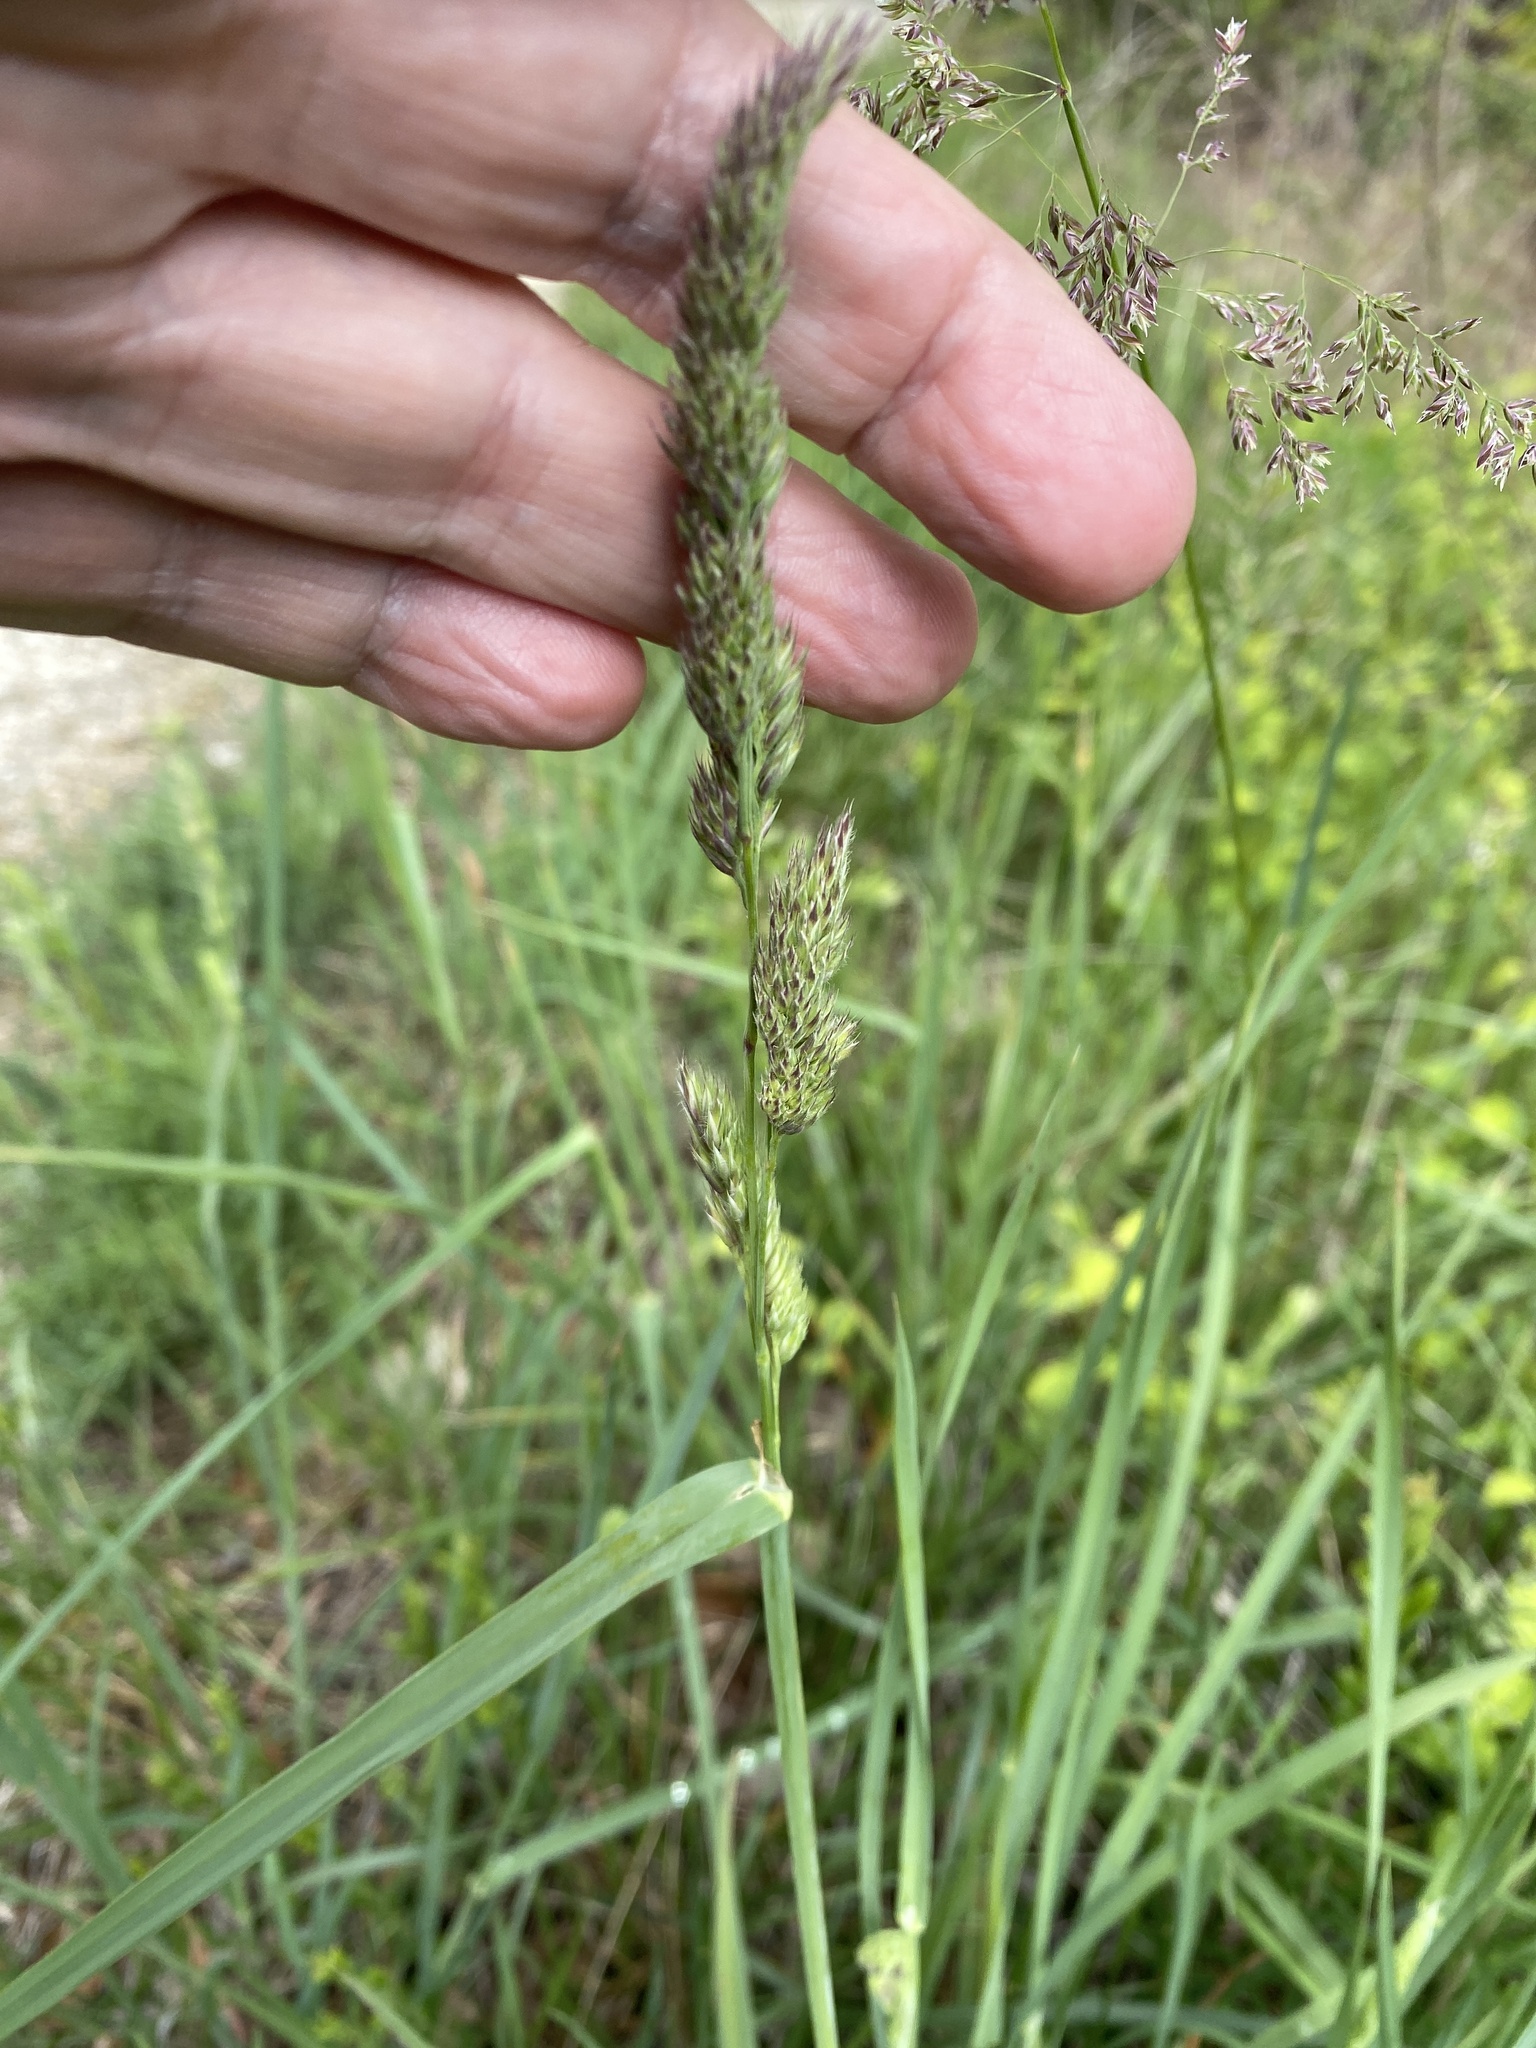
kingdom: Plantae
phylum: Tracheophyta
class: Liliopsida
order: Poales
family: Poaceae
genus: Dactylis
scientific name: Dactylis glomerata
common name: Orchardgrass
